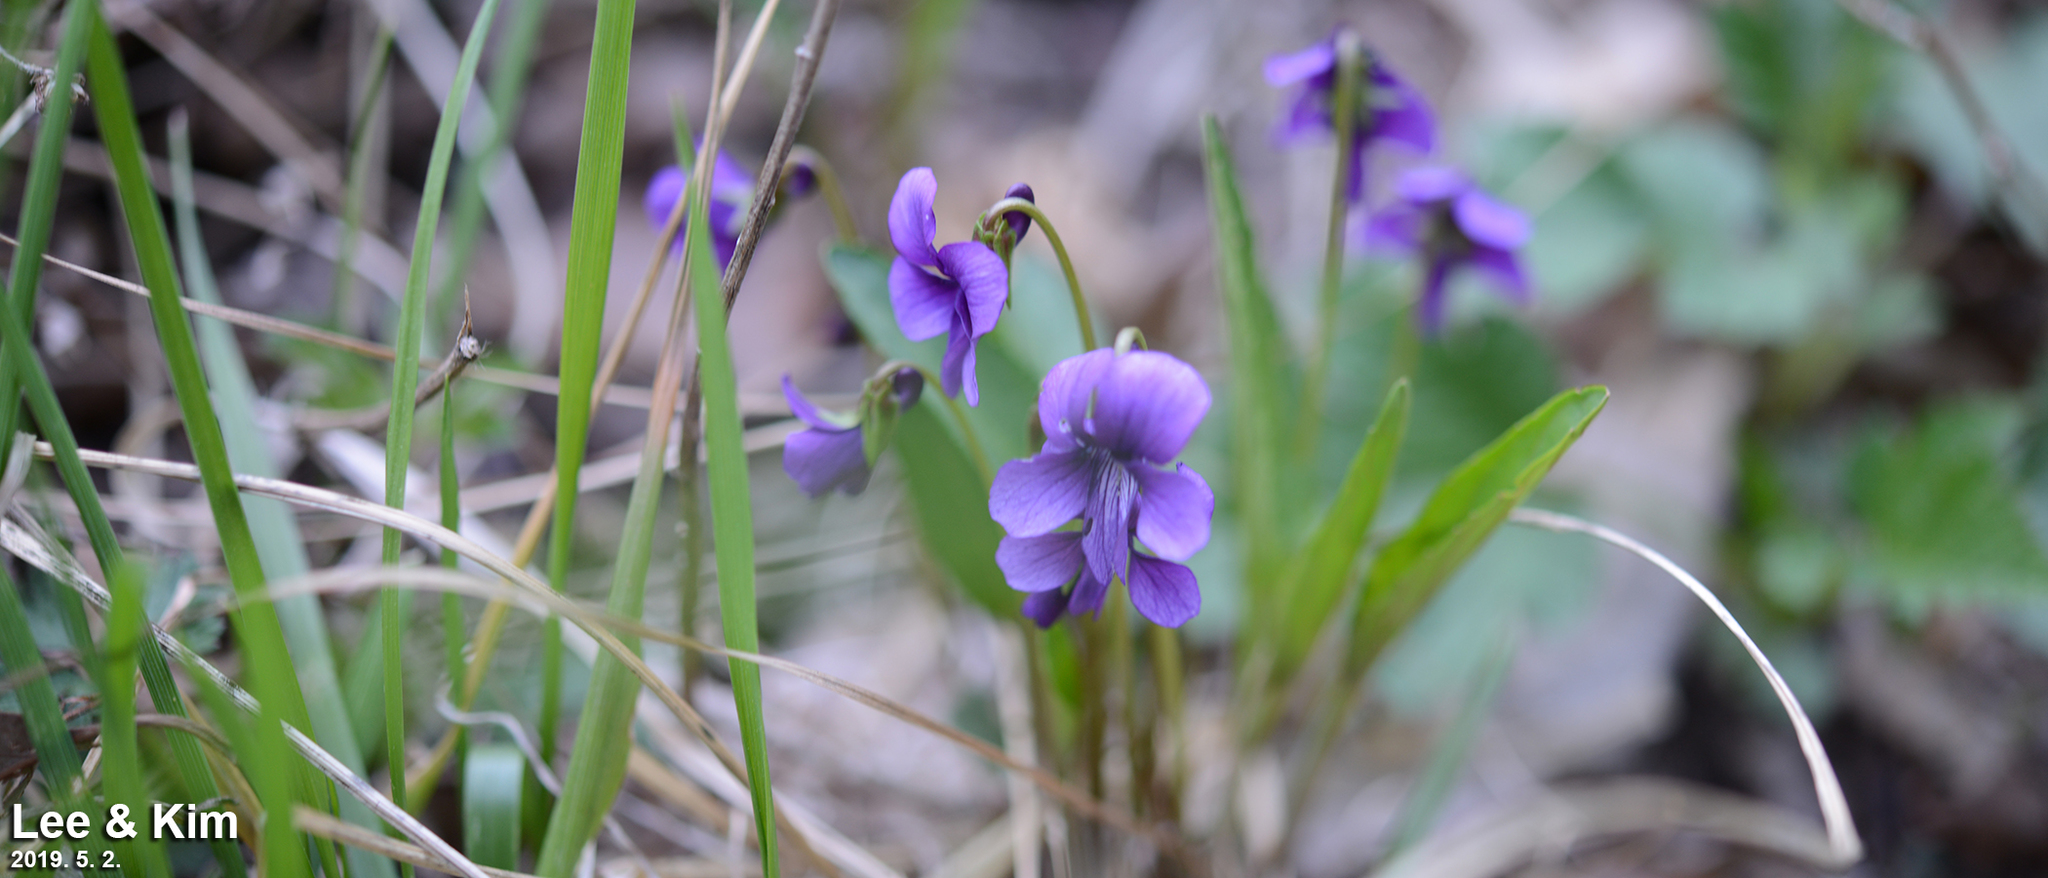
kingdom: Plantae
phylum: Tracheophyta
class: Magnoliopsida
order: Malpighiales
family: Violaceae
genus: Viola
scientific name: Viola mandshurica
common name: Manchuria violet
